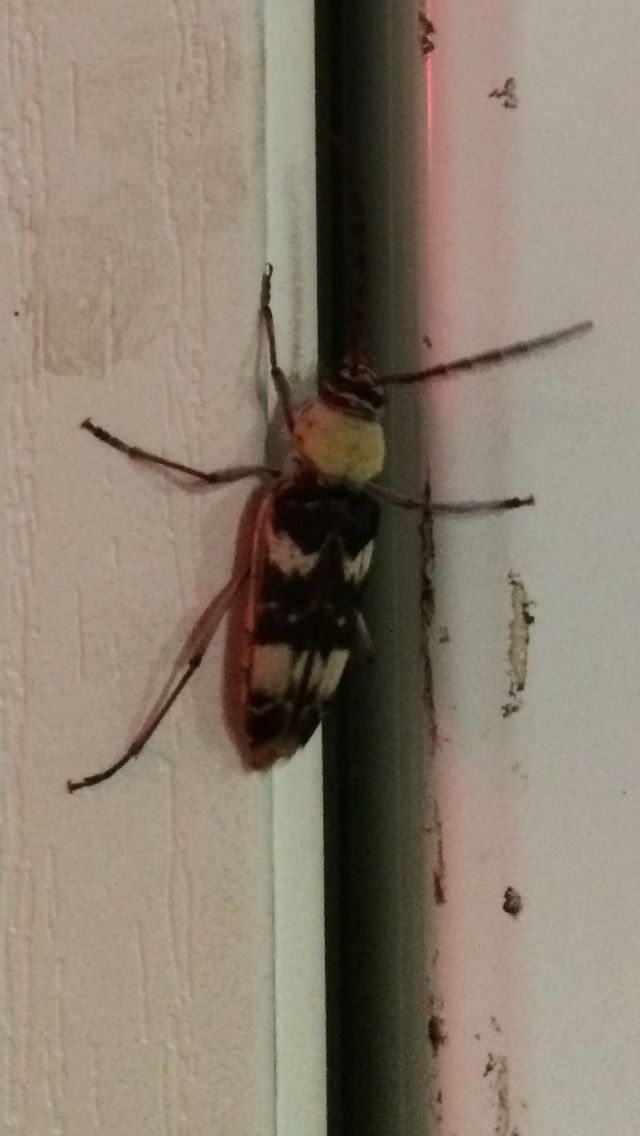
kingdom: Animalia
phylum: Arthropoda
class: Insecta
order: Coleoptera
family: Cerambycidae
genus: Megacyllene
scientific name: Megacyllene antennata
